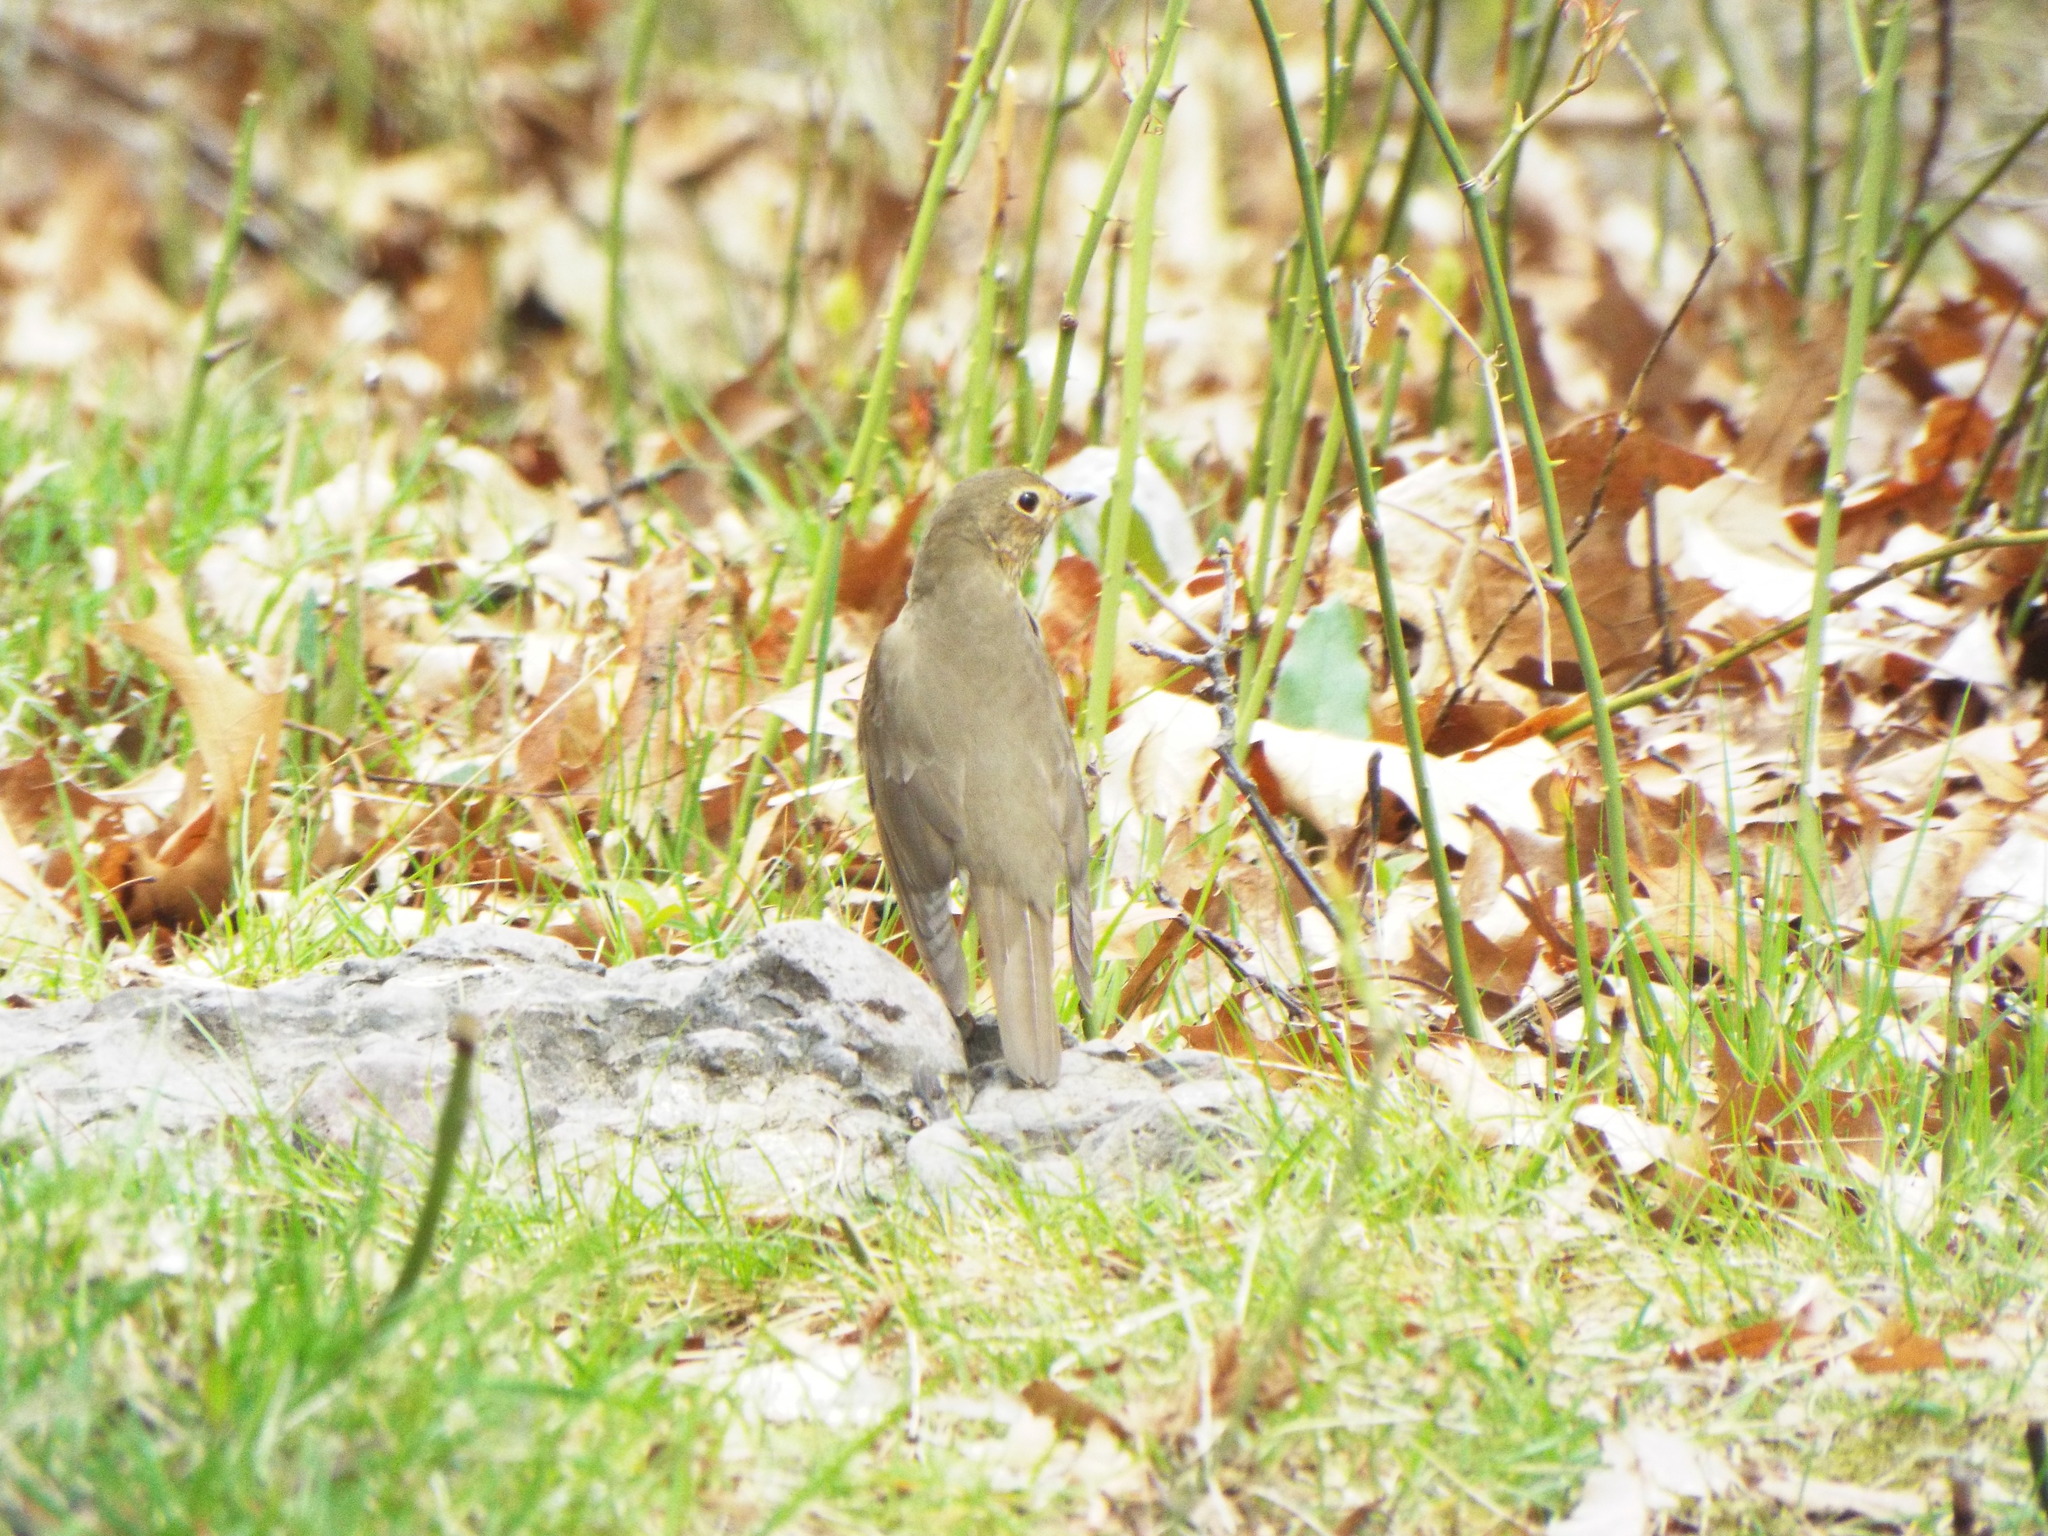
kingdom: Animalia
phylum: Chordata
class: Aves
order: Passeriformes
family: Turdidae
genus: Catharus
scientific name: Catharus ustulatus
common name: Swainson's thrush
